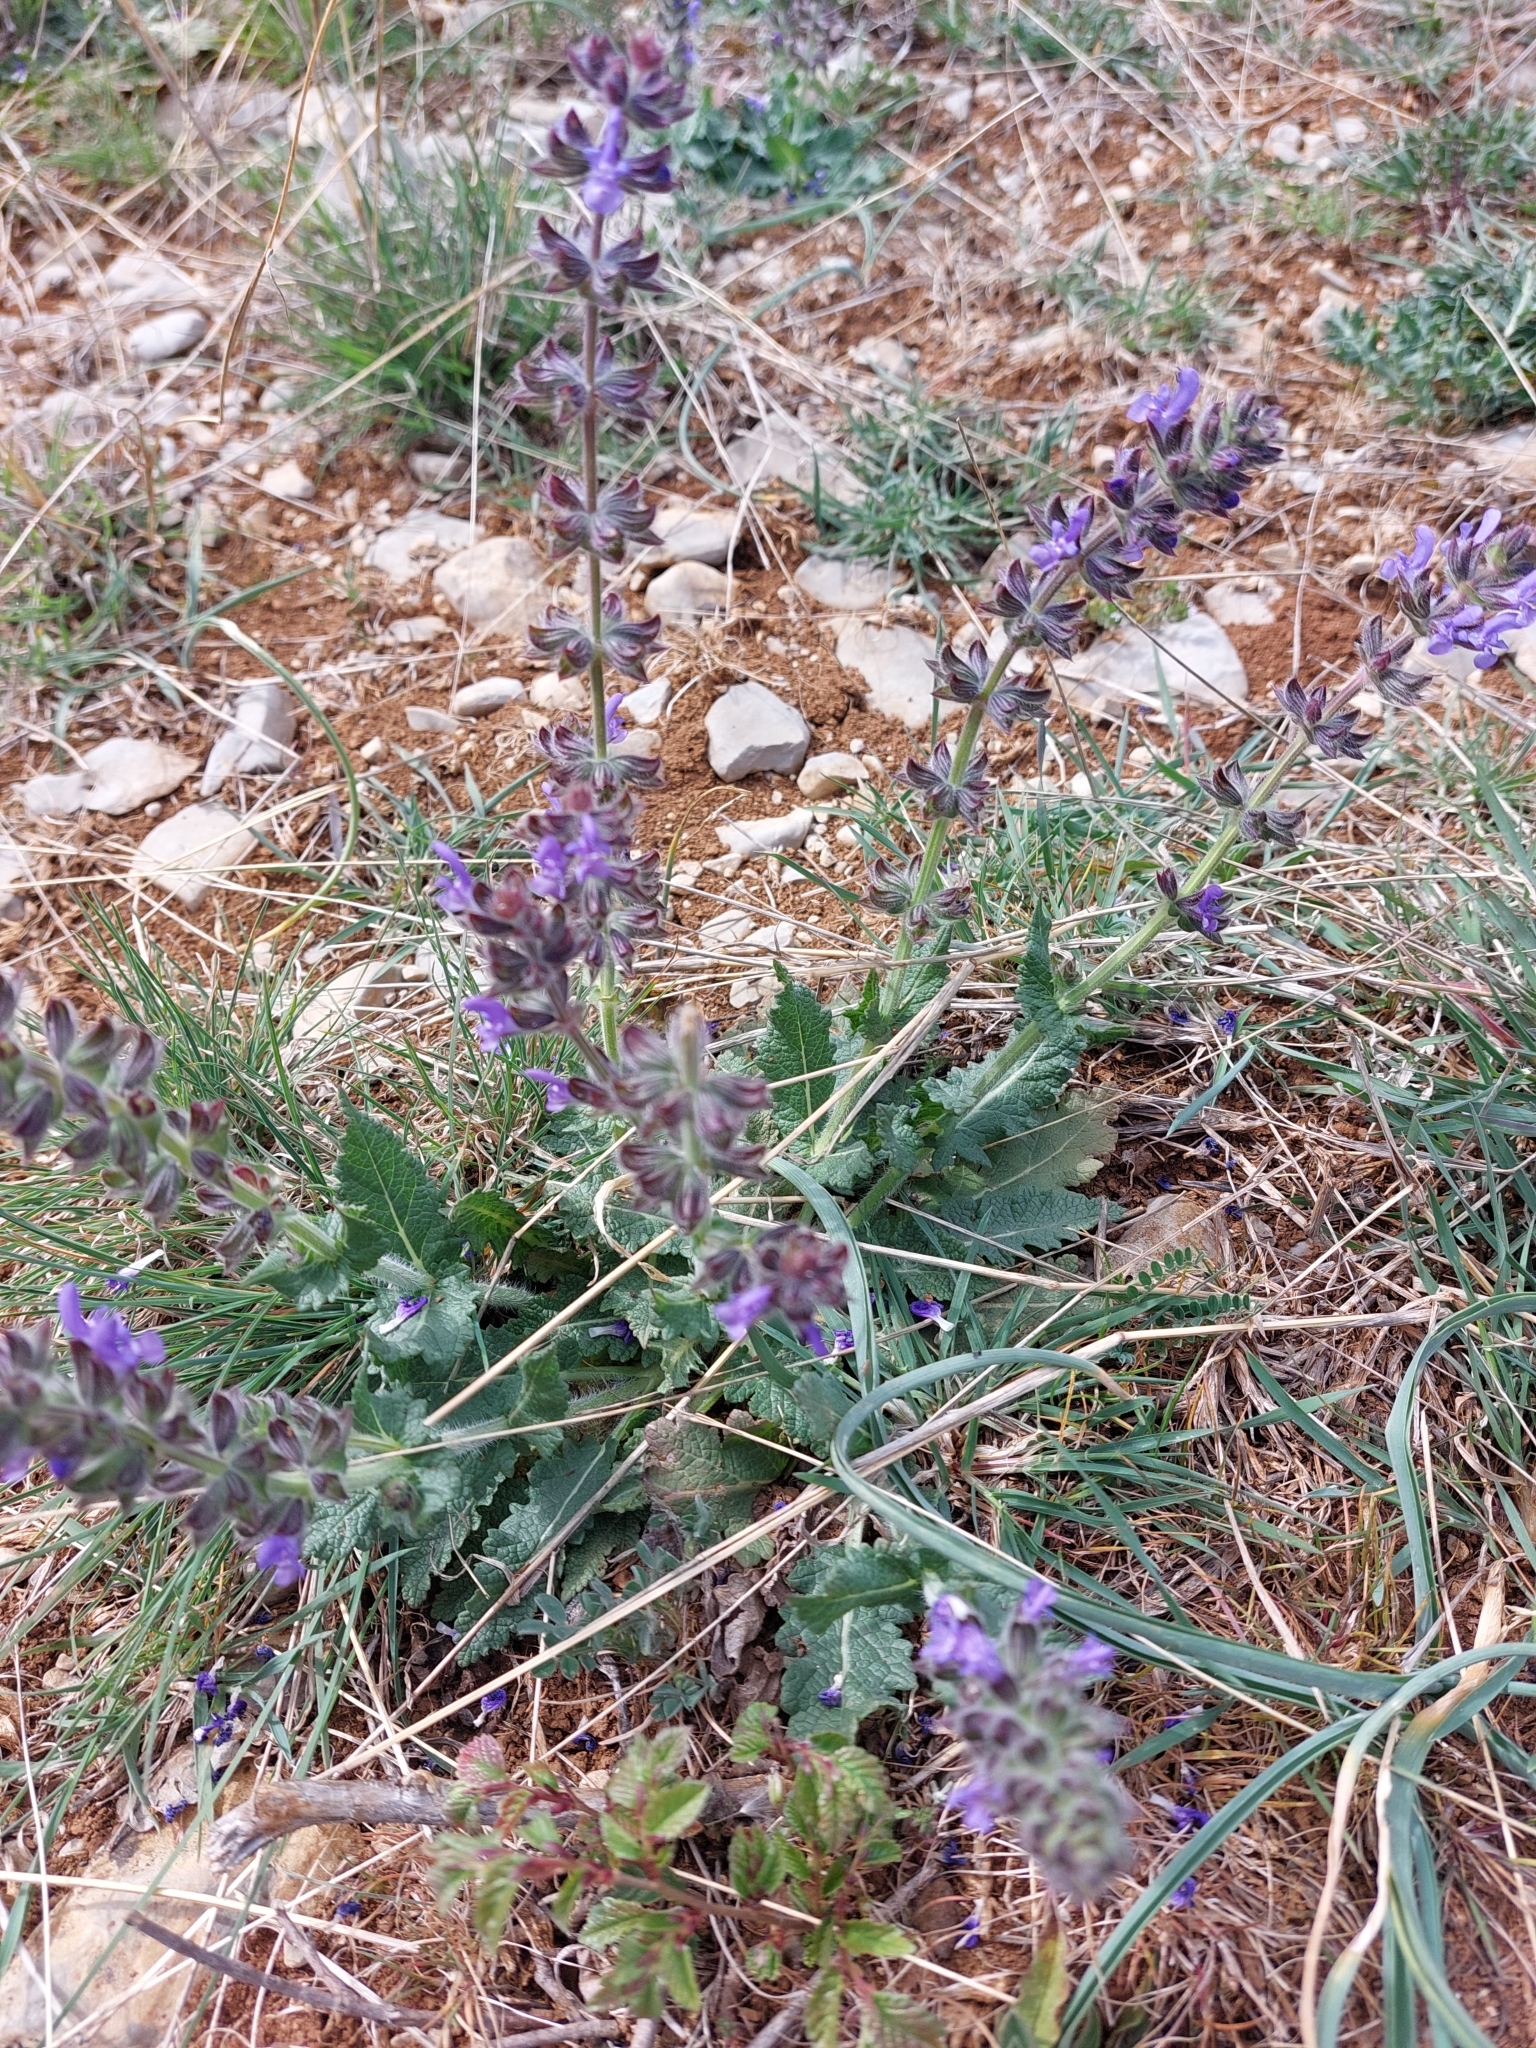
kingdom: Plantae
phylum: Tracheophyta
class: Magnoliopsida
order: Lamiales
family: Lamiaceae
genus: Salvia
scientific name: Salvia verbenaca
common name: Wild clary
